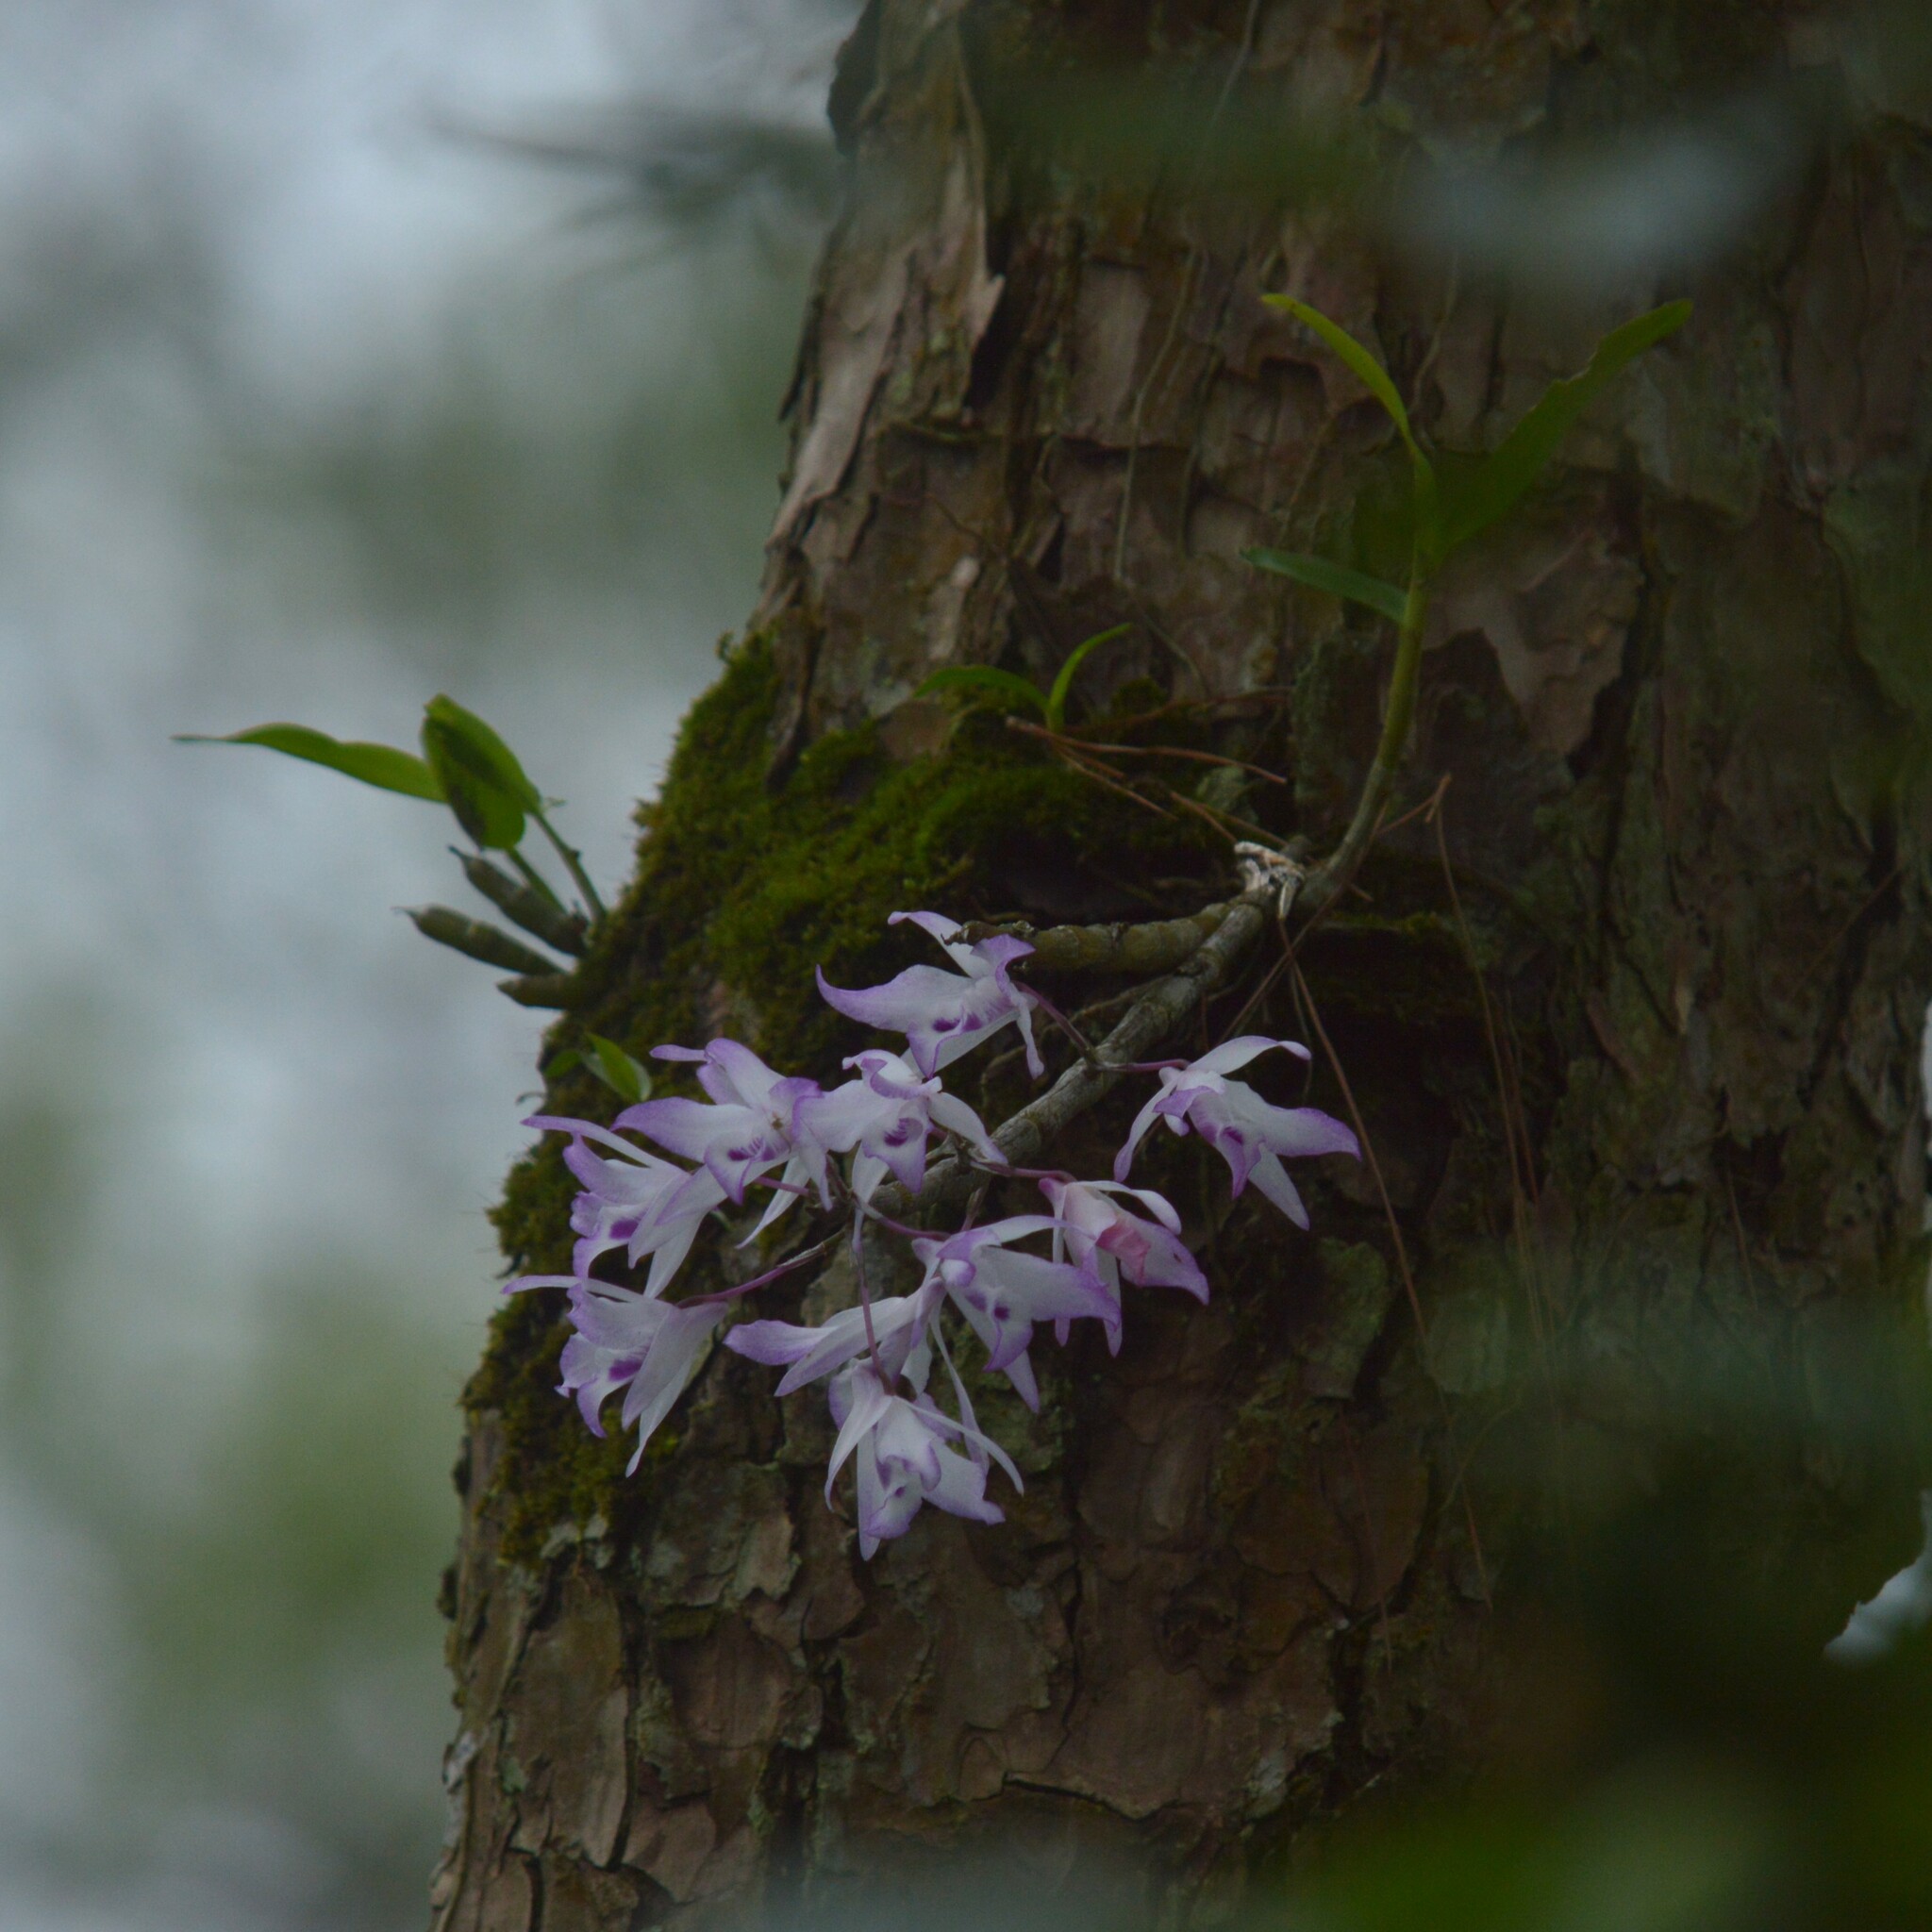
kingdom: Plantae
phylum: Tracheophyta
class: Liliopsida
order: Asparagales
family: Orchidaceae
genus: Dendrobium
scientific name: Dendrobium transparens
